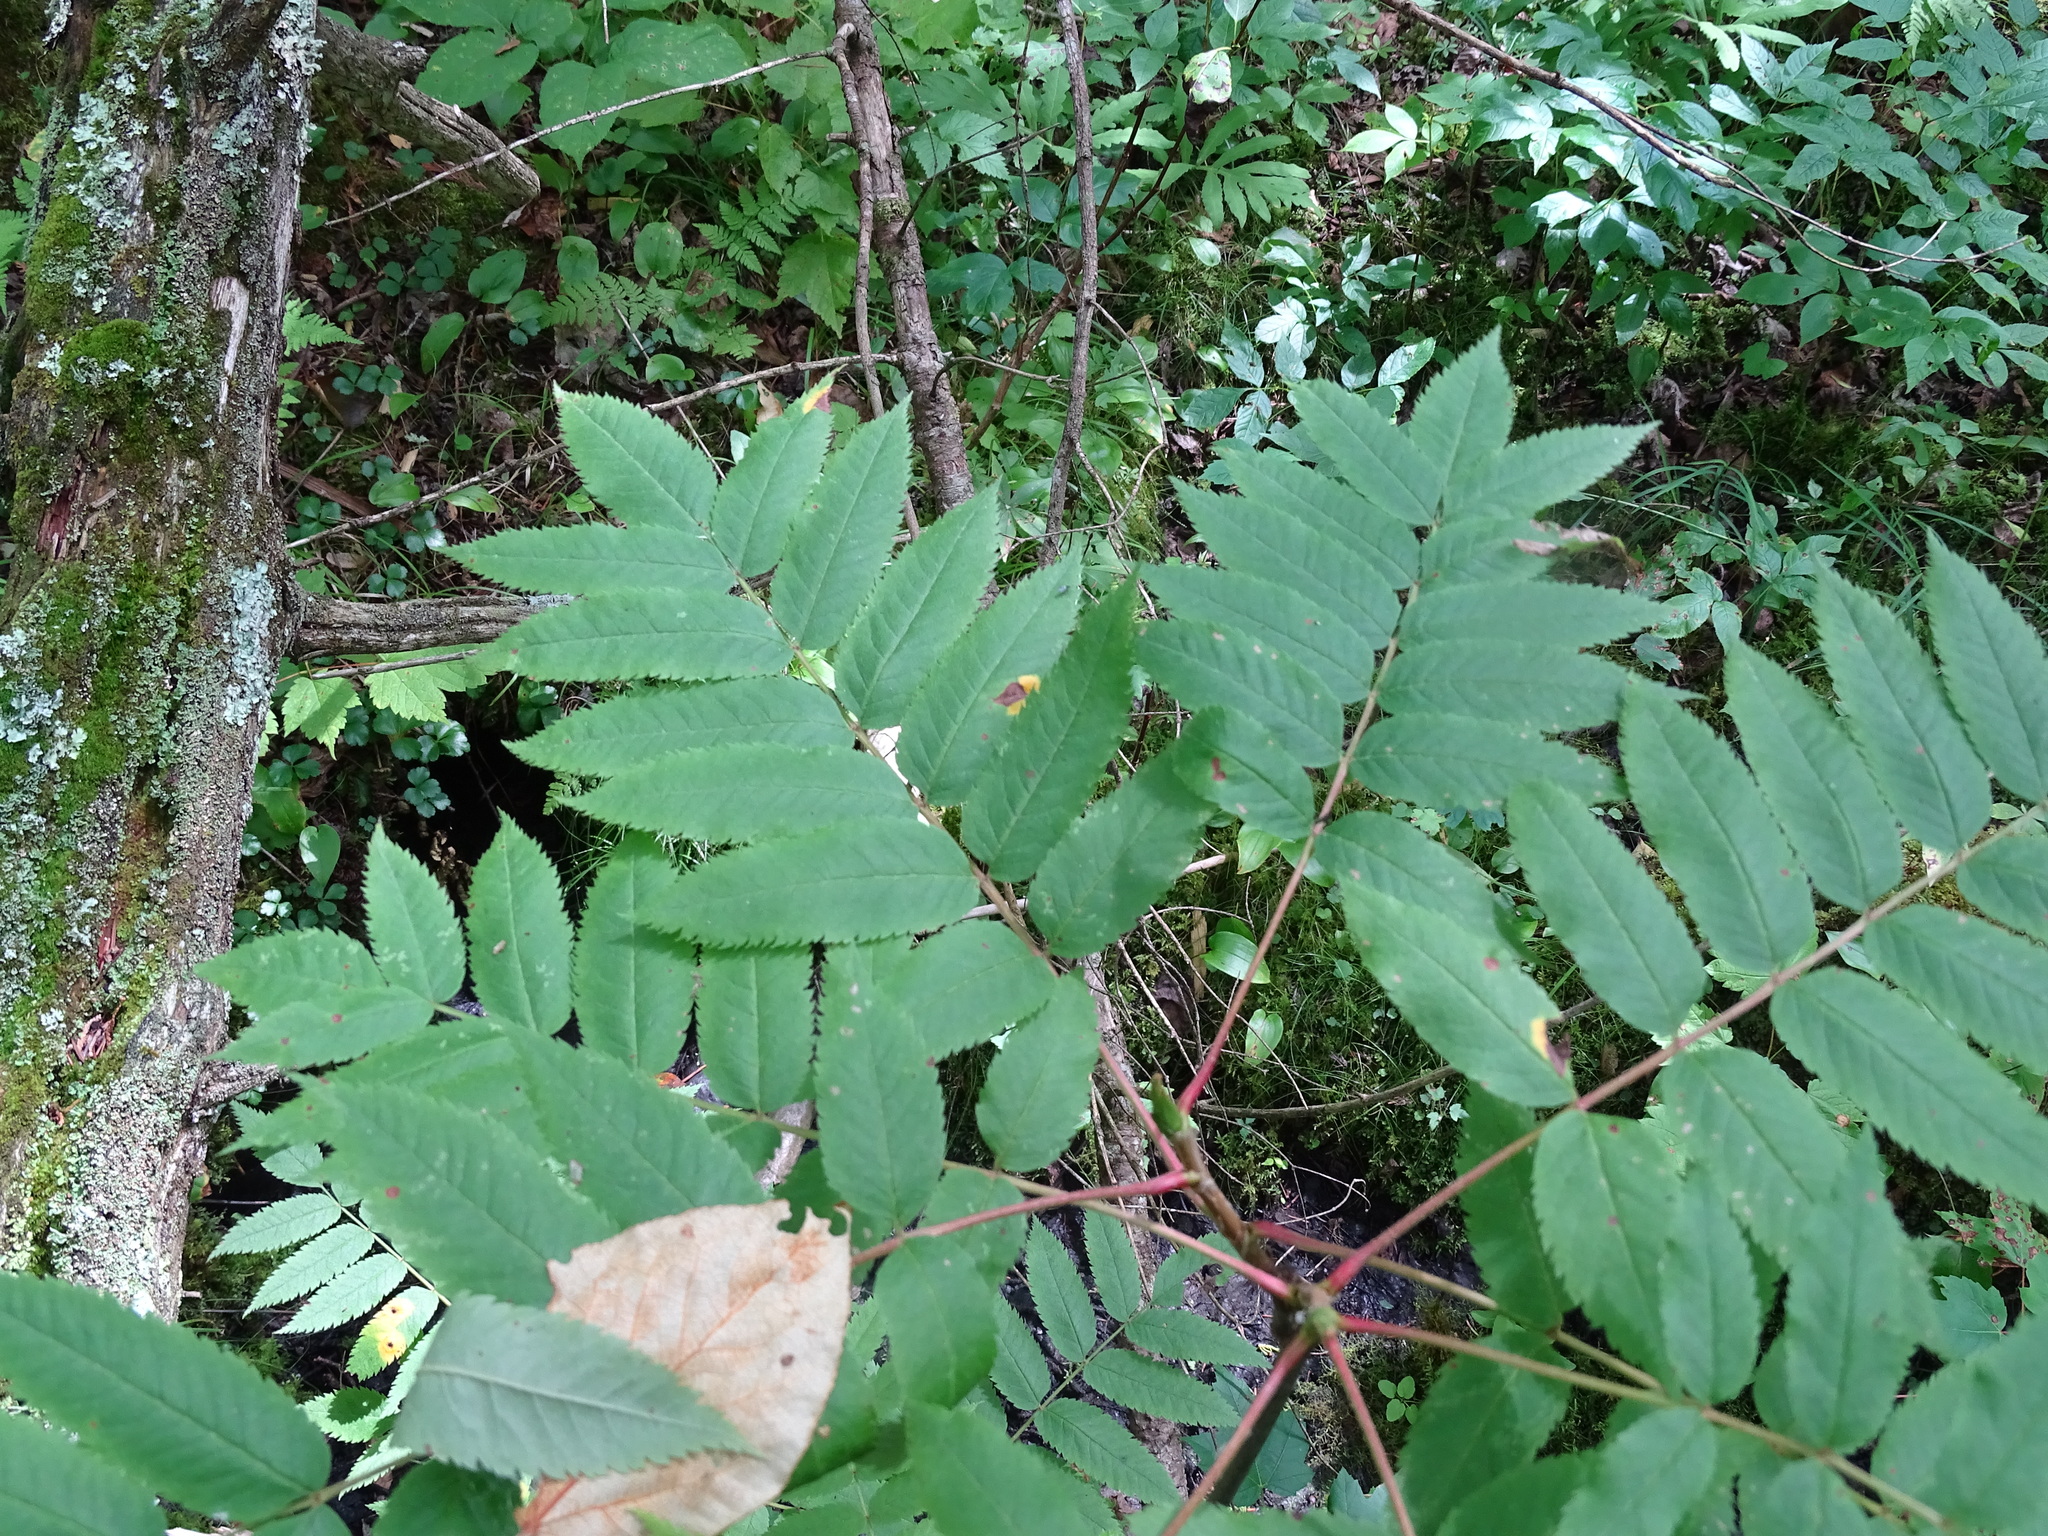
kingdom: Plantae
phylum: Tracheophyta
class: Magnoliopsida
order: Rosales
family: Rosaceae
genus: Sorbus
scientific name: Sorbus decora
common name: Northern mountain-ash
